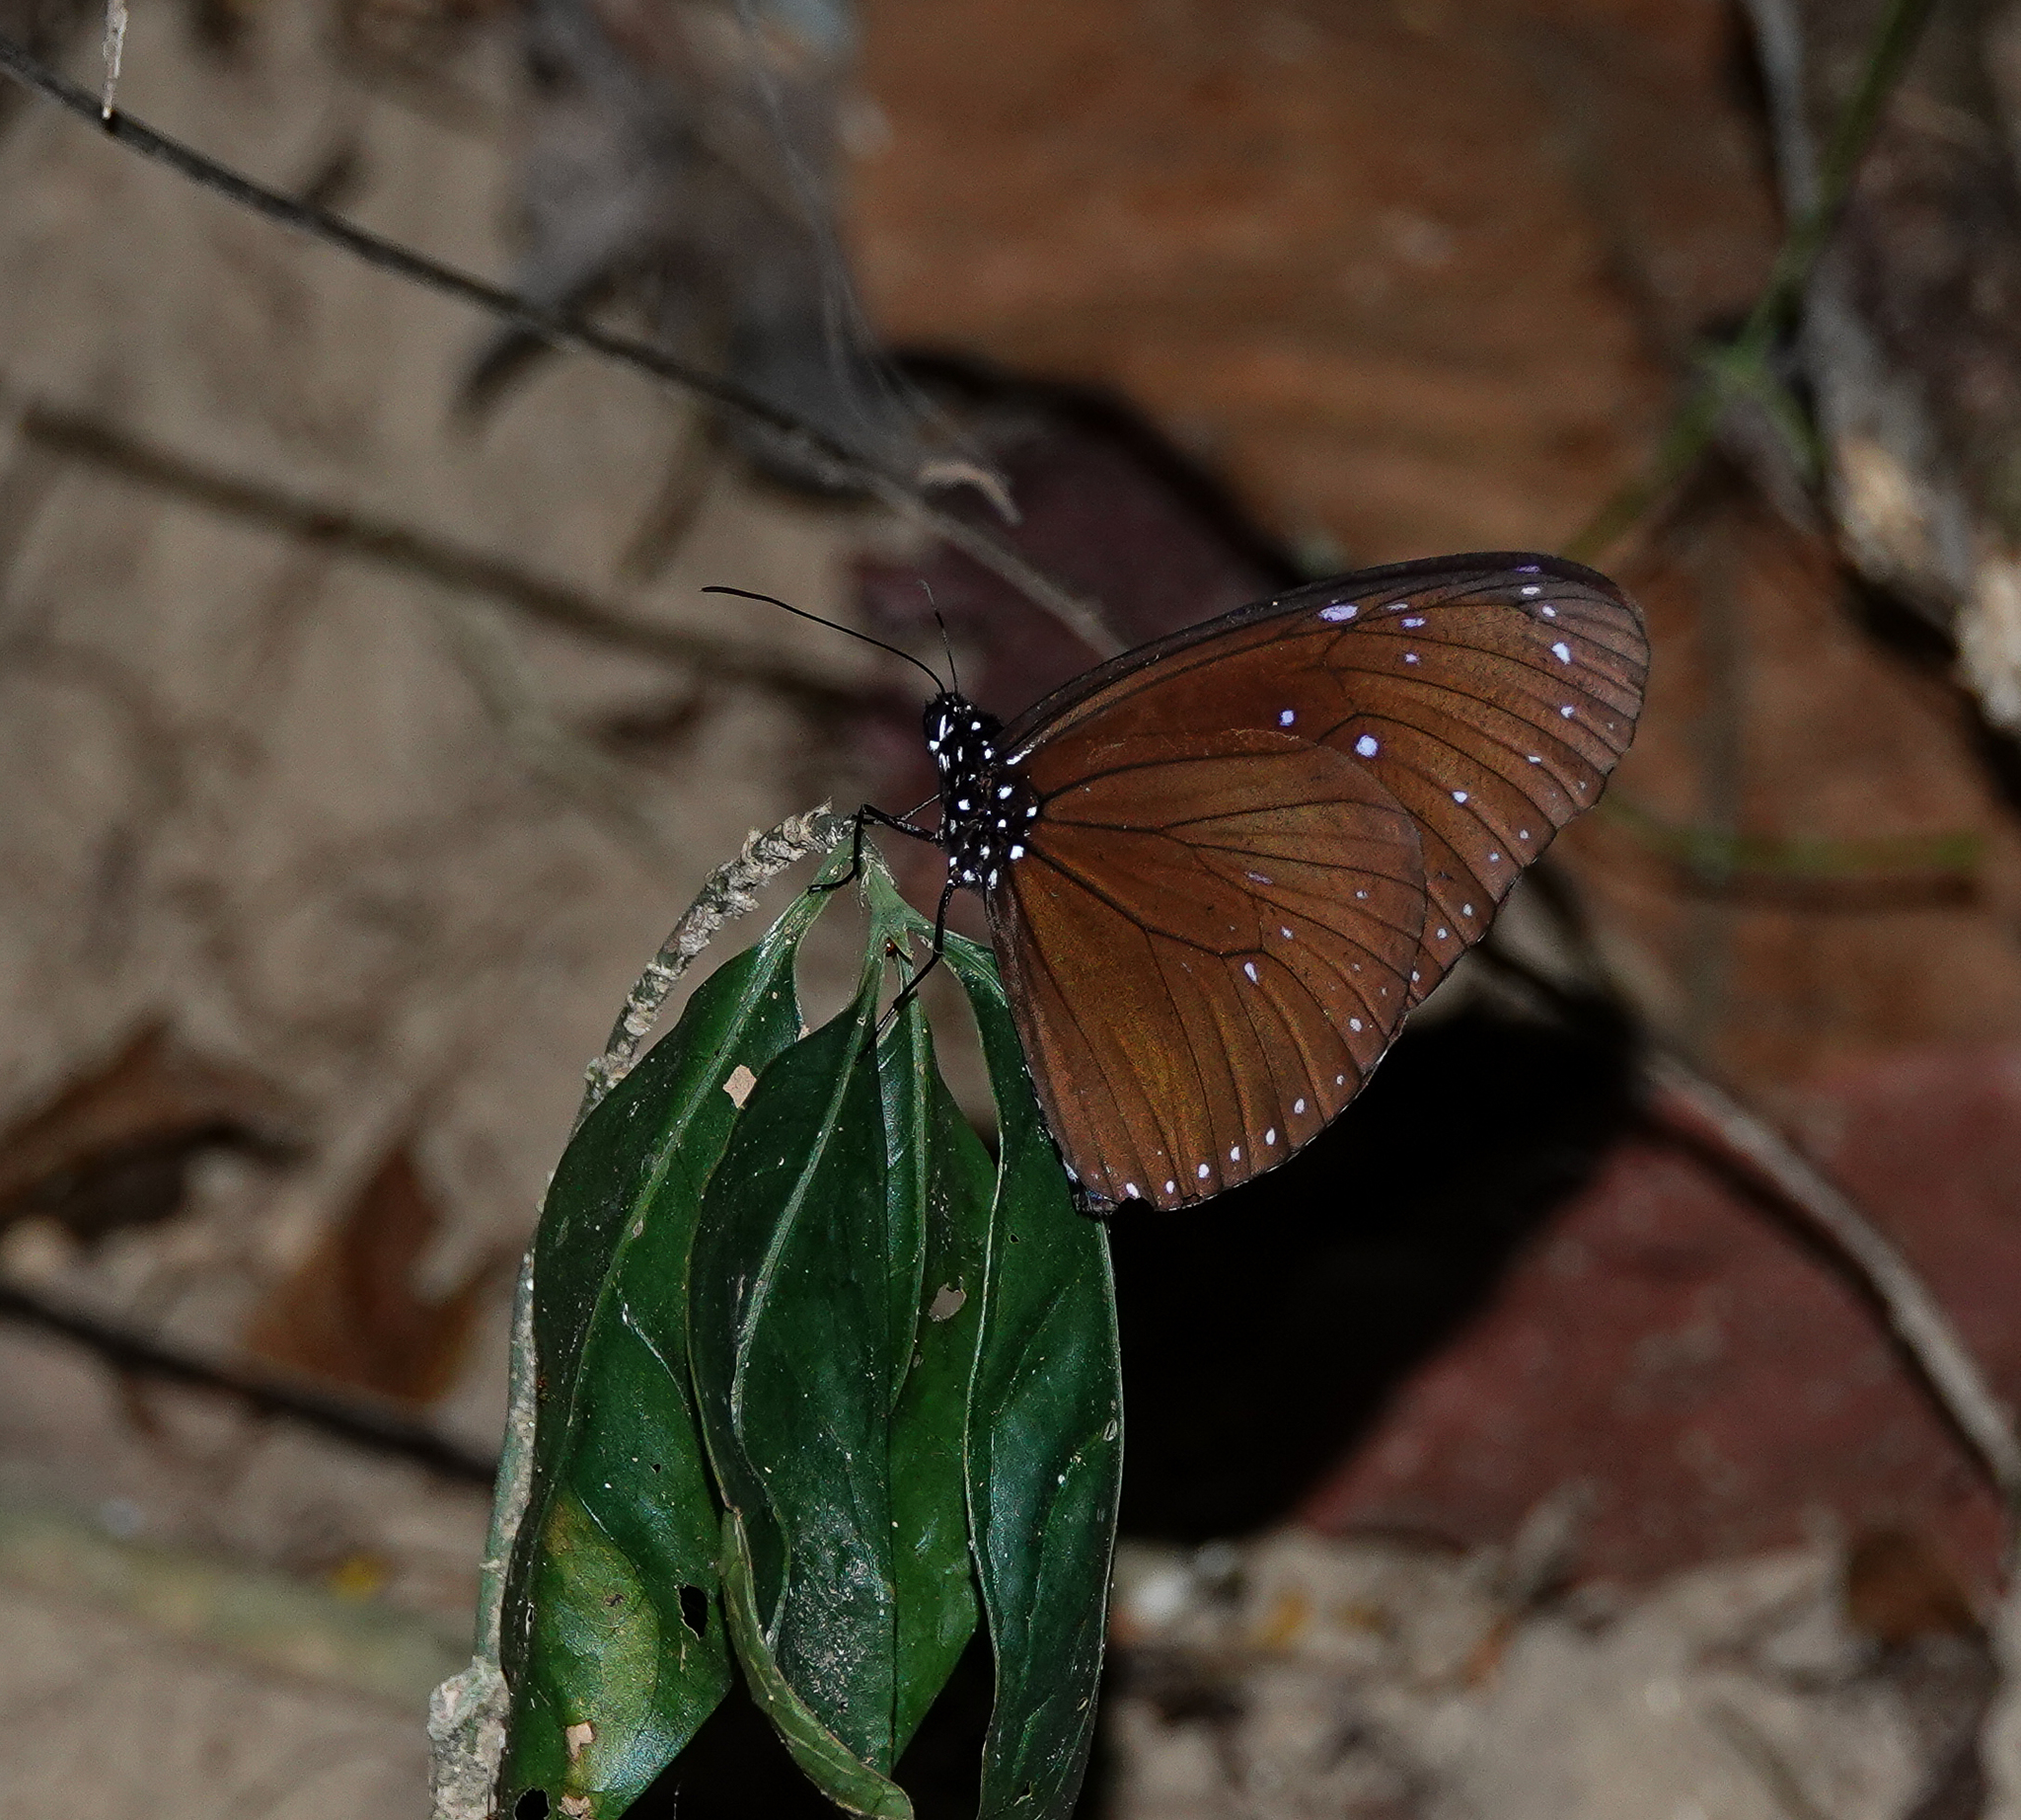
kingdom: Animalia
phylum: Arthropoda
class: Insecta
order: Lepidoptera
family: Nymphalidae
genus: Euploea
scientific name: Euploea mulciber
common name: Striped blue crow butterfly
